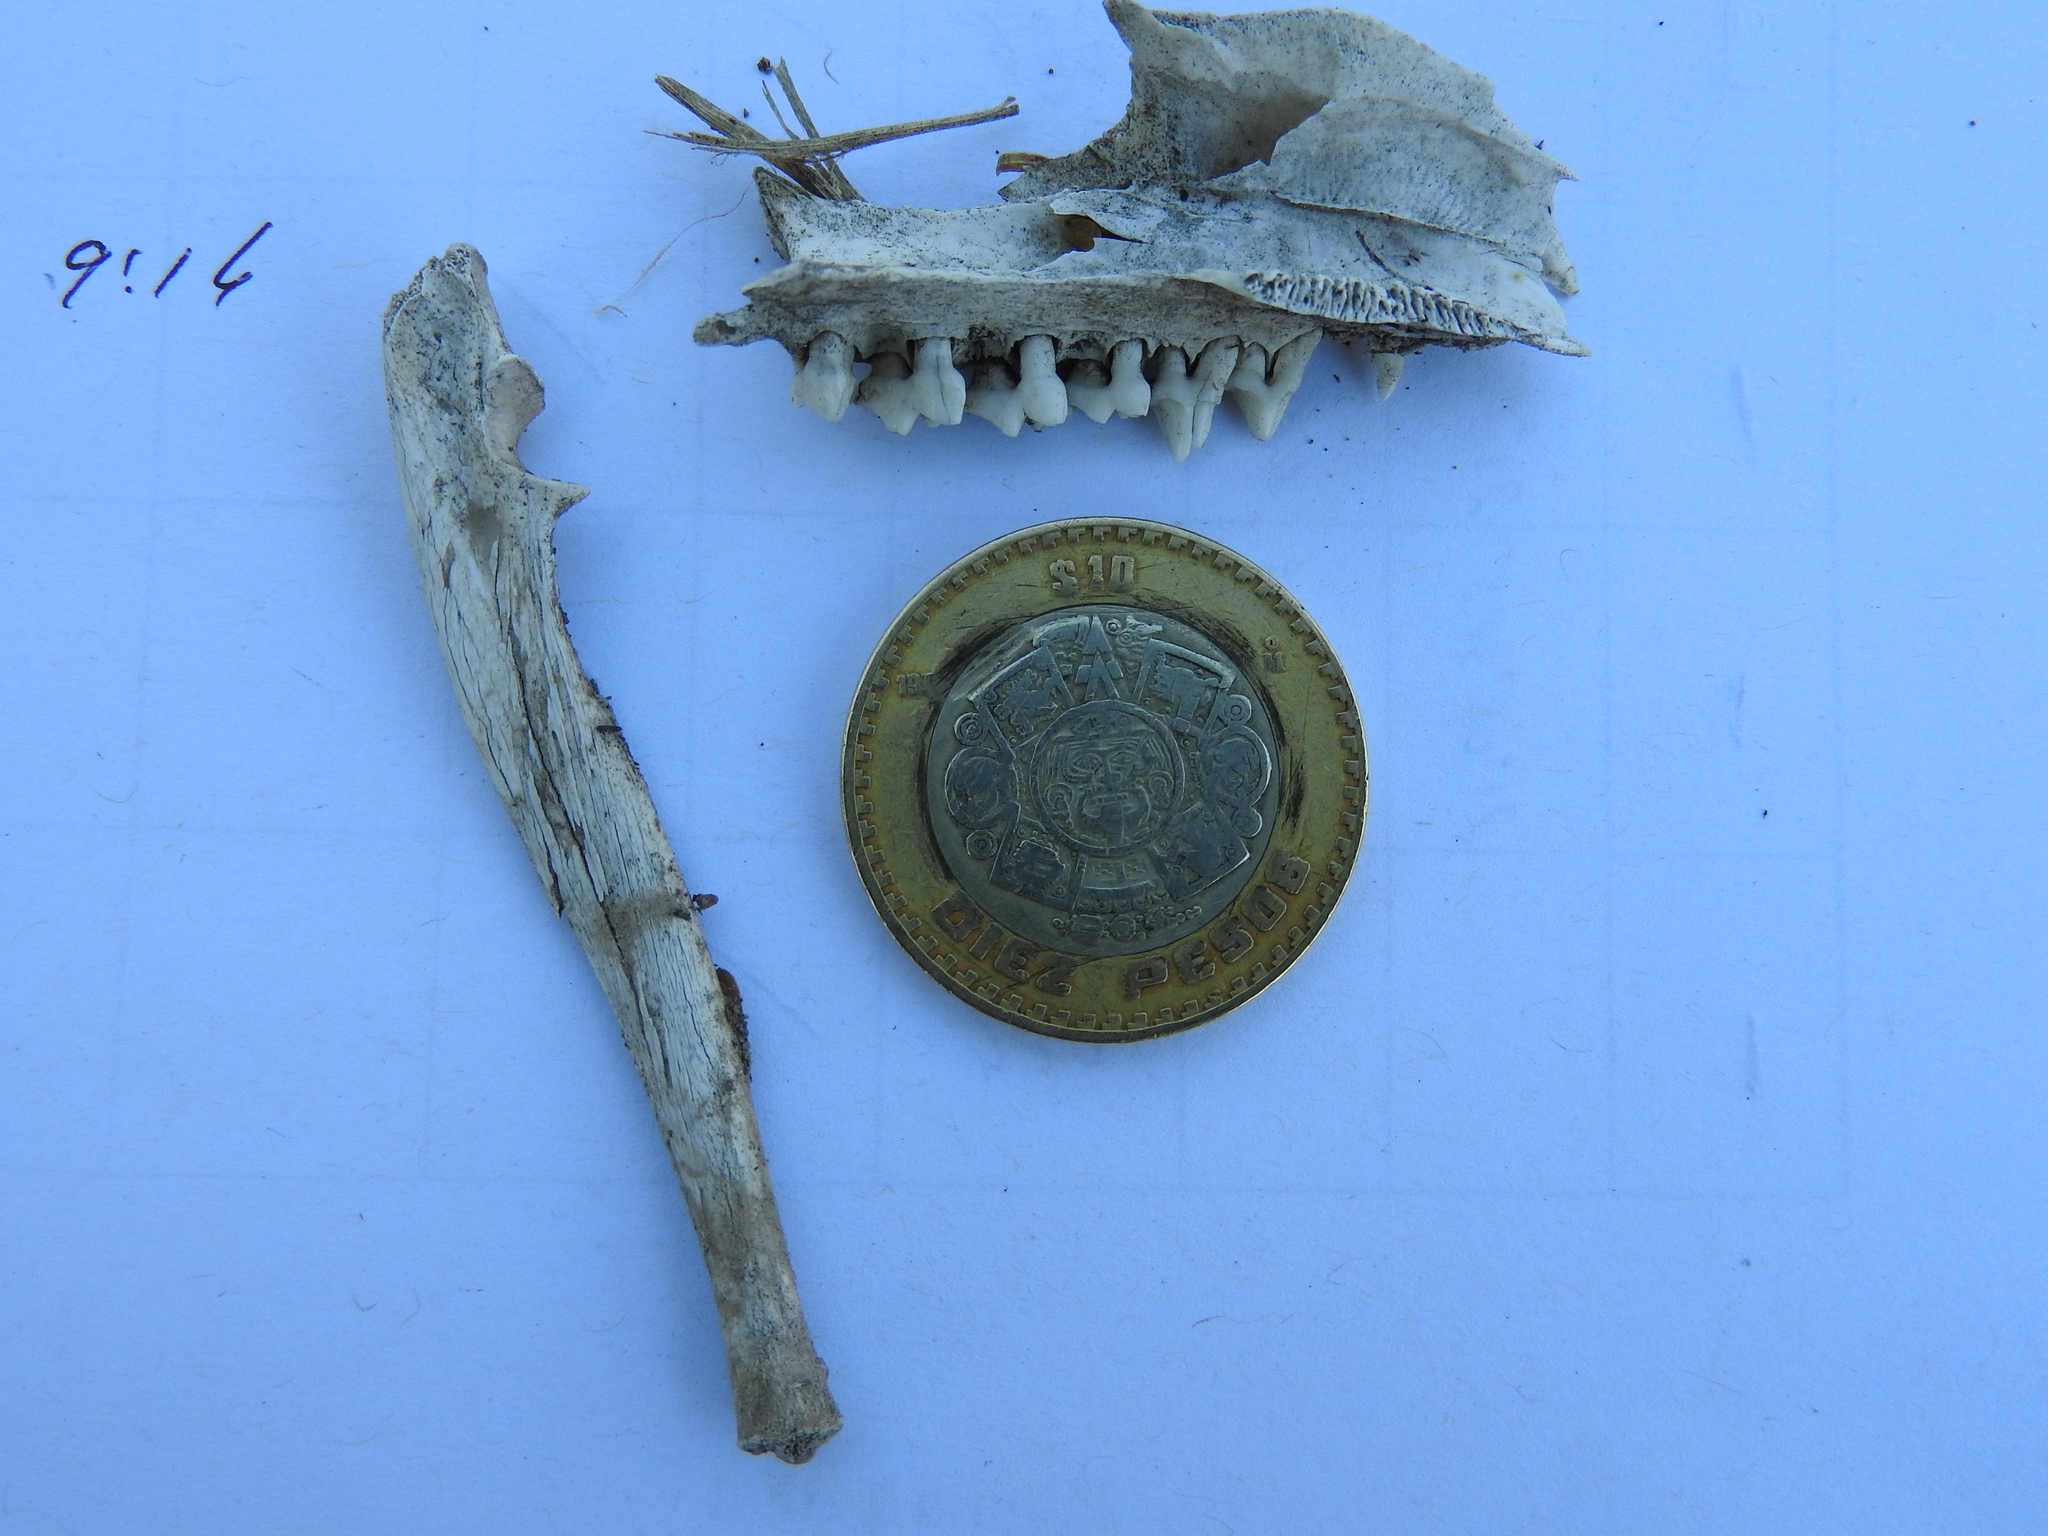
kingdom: Animalia
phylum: Chordata
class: Mammalia
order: Didelphimorphia
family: Didelphidae
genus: Didelphis
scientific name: Didelphis virginiana
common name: Virginia opossum
